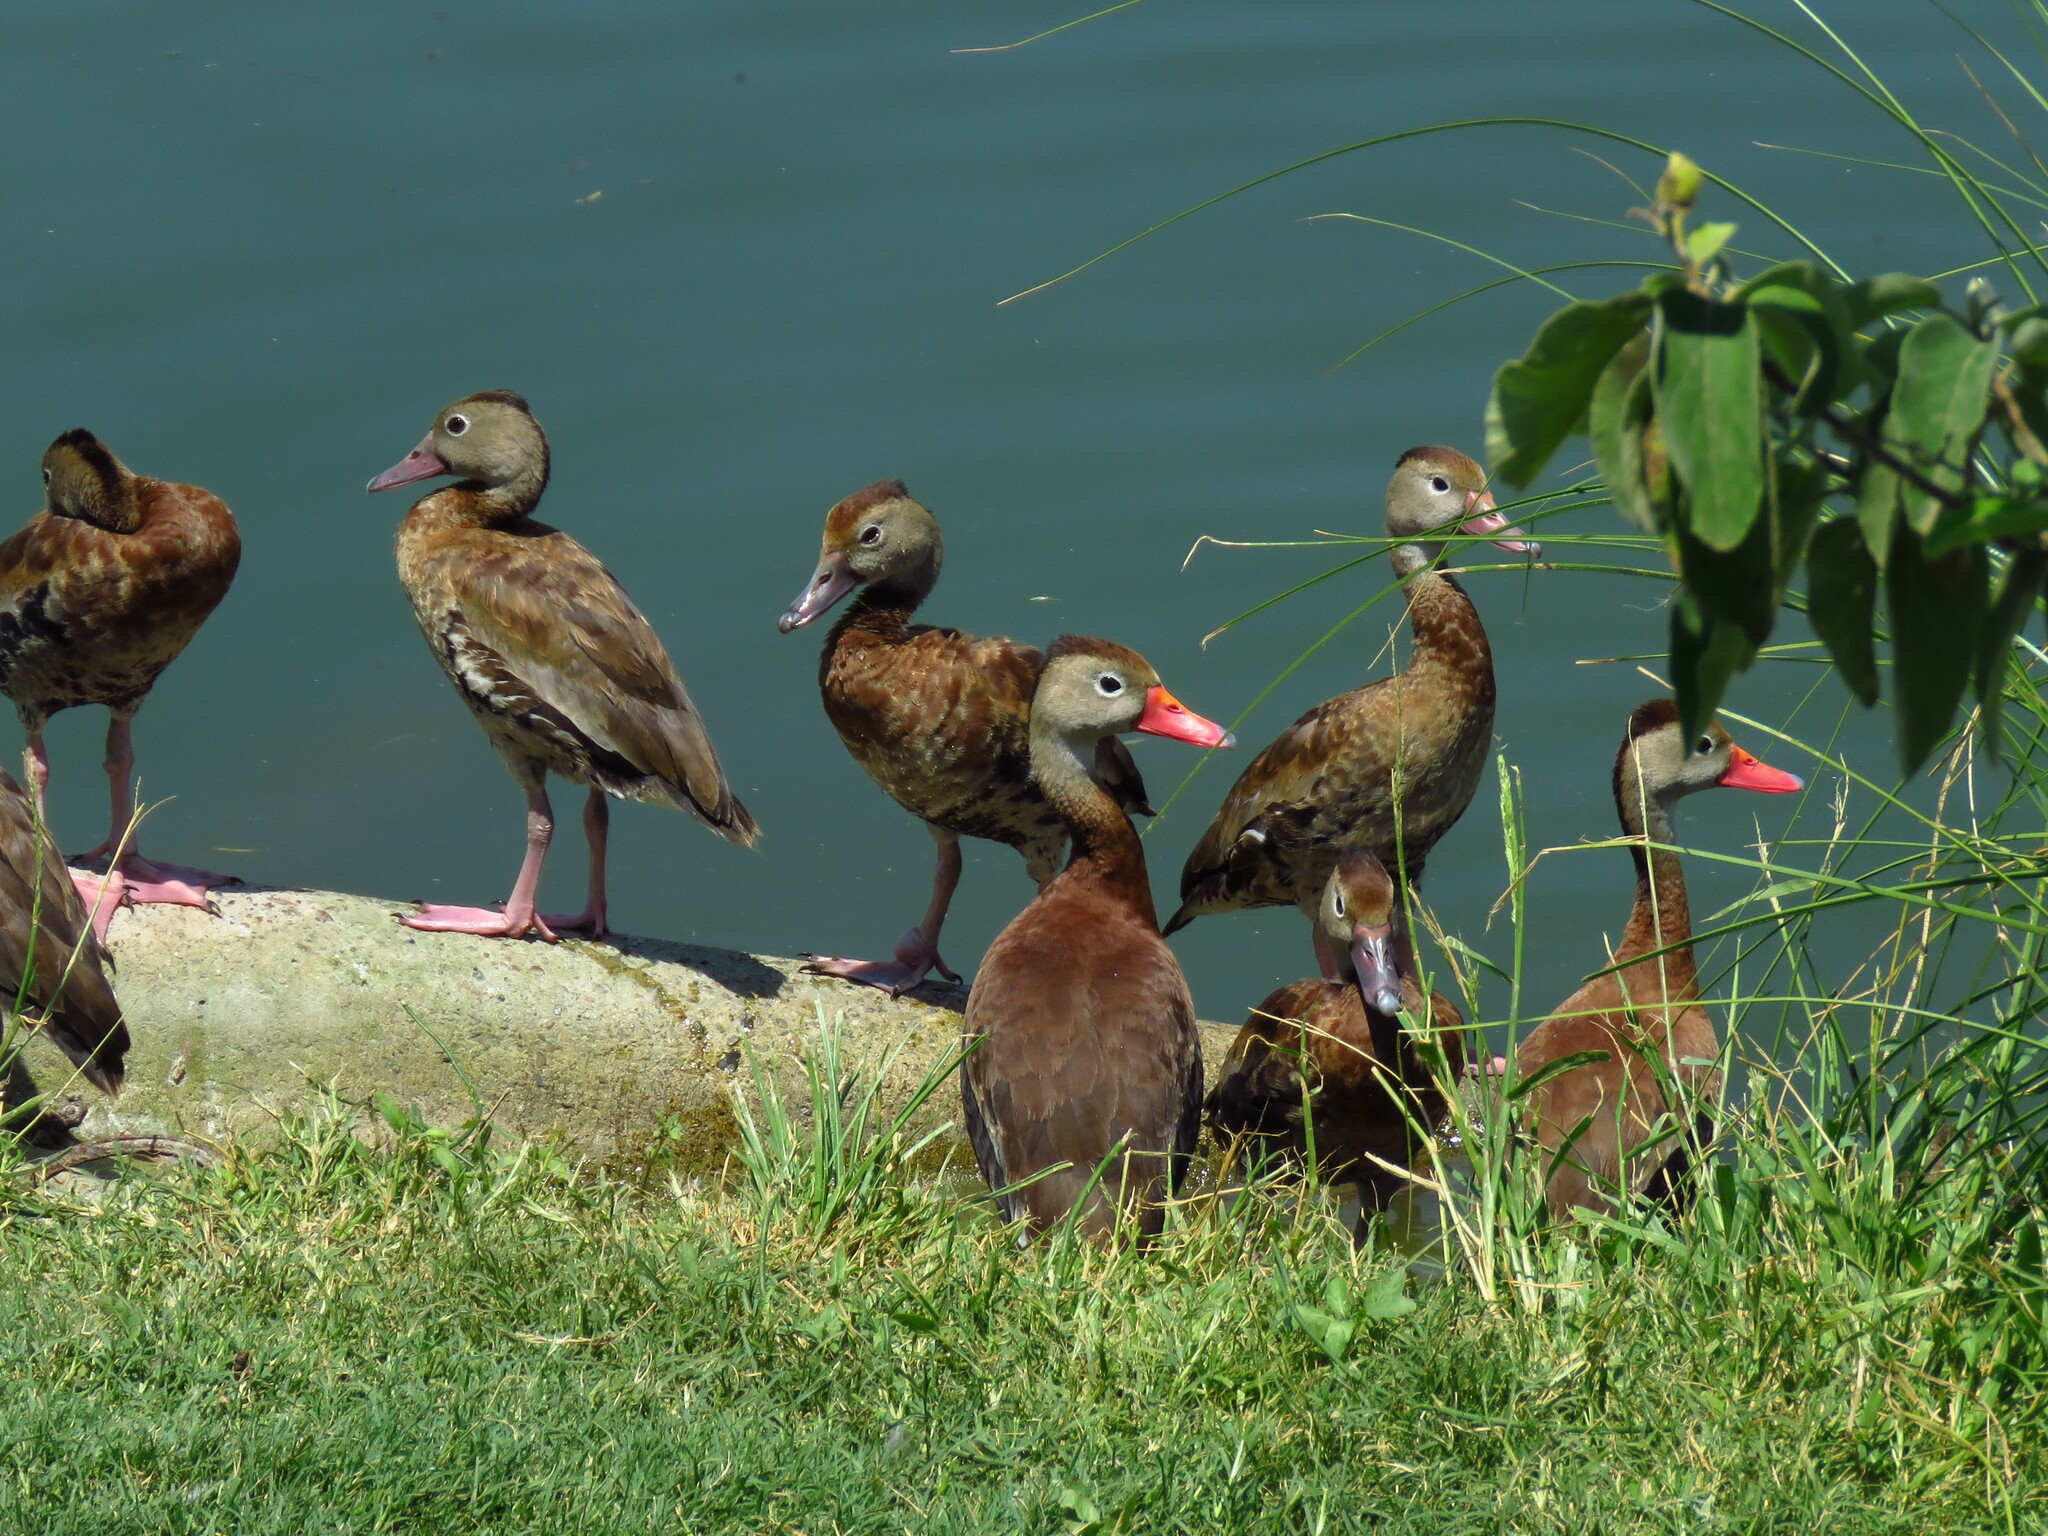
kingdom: Animalia
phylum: Chordata
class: Aves
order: Anseriformes
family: Anatidae
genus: Dendrocygna
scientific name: Dendrocygna autumnalis
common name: Black-bellied whistling duck
